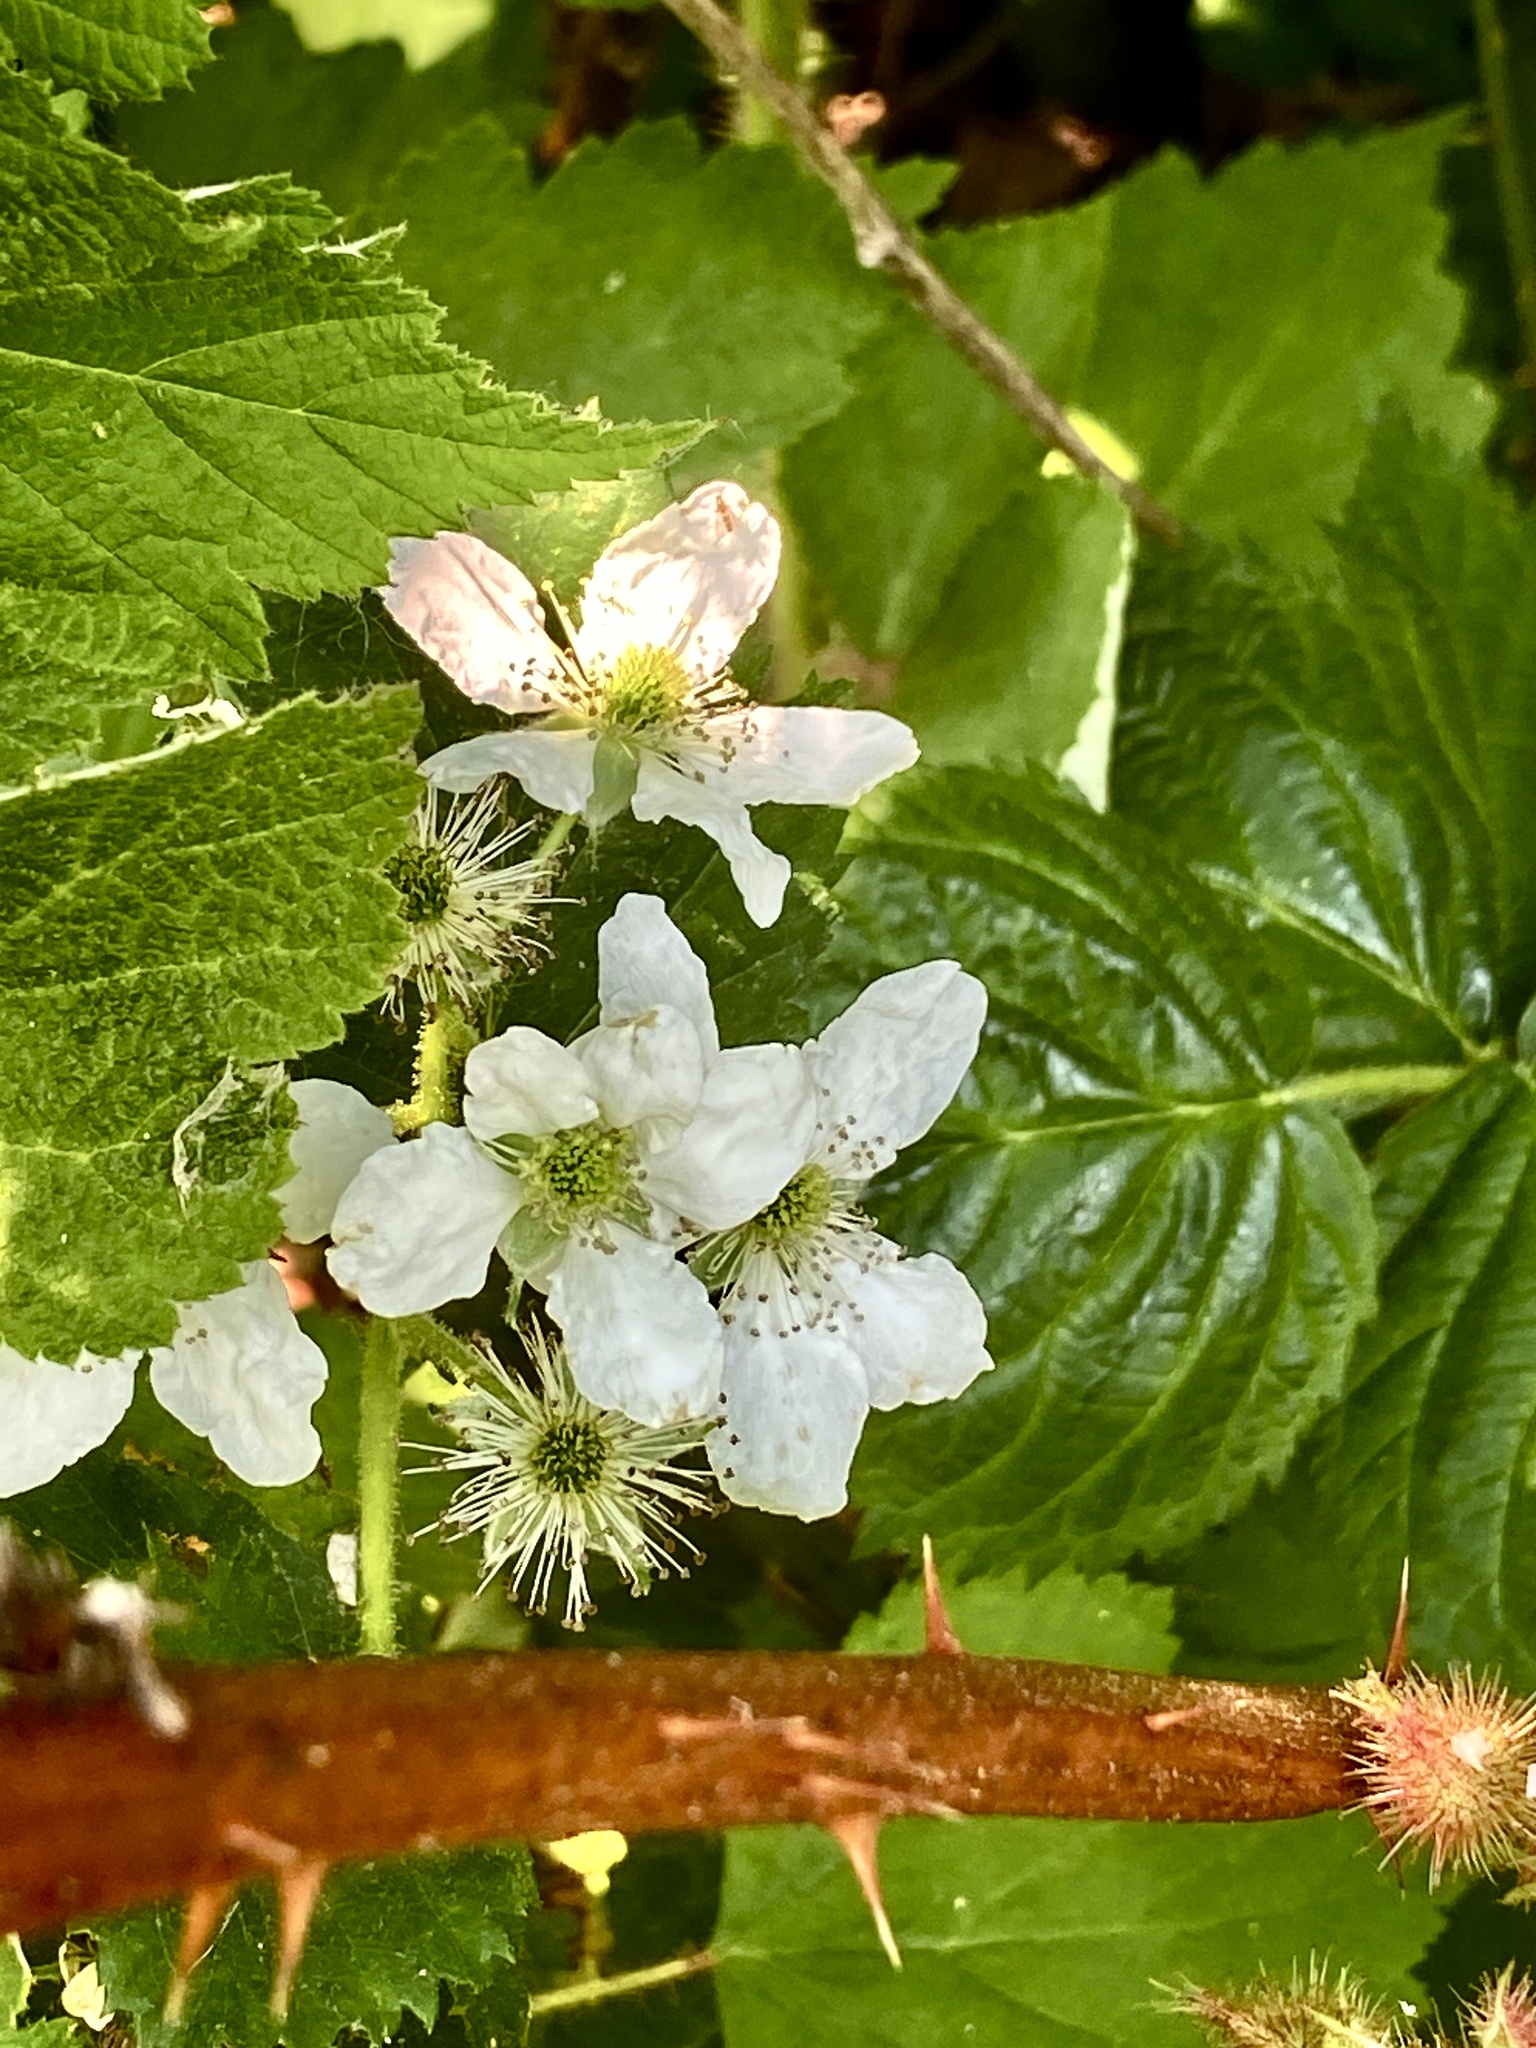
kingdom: Plantae
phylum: Tracheophyta
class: Magnoliopsida
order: Rosales
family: Rosaceae
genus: Rubus
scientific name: Rubus allegheniensis
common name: Allegheny blackberry
